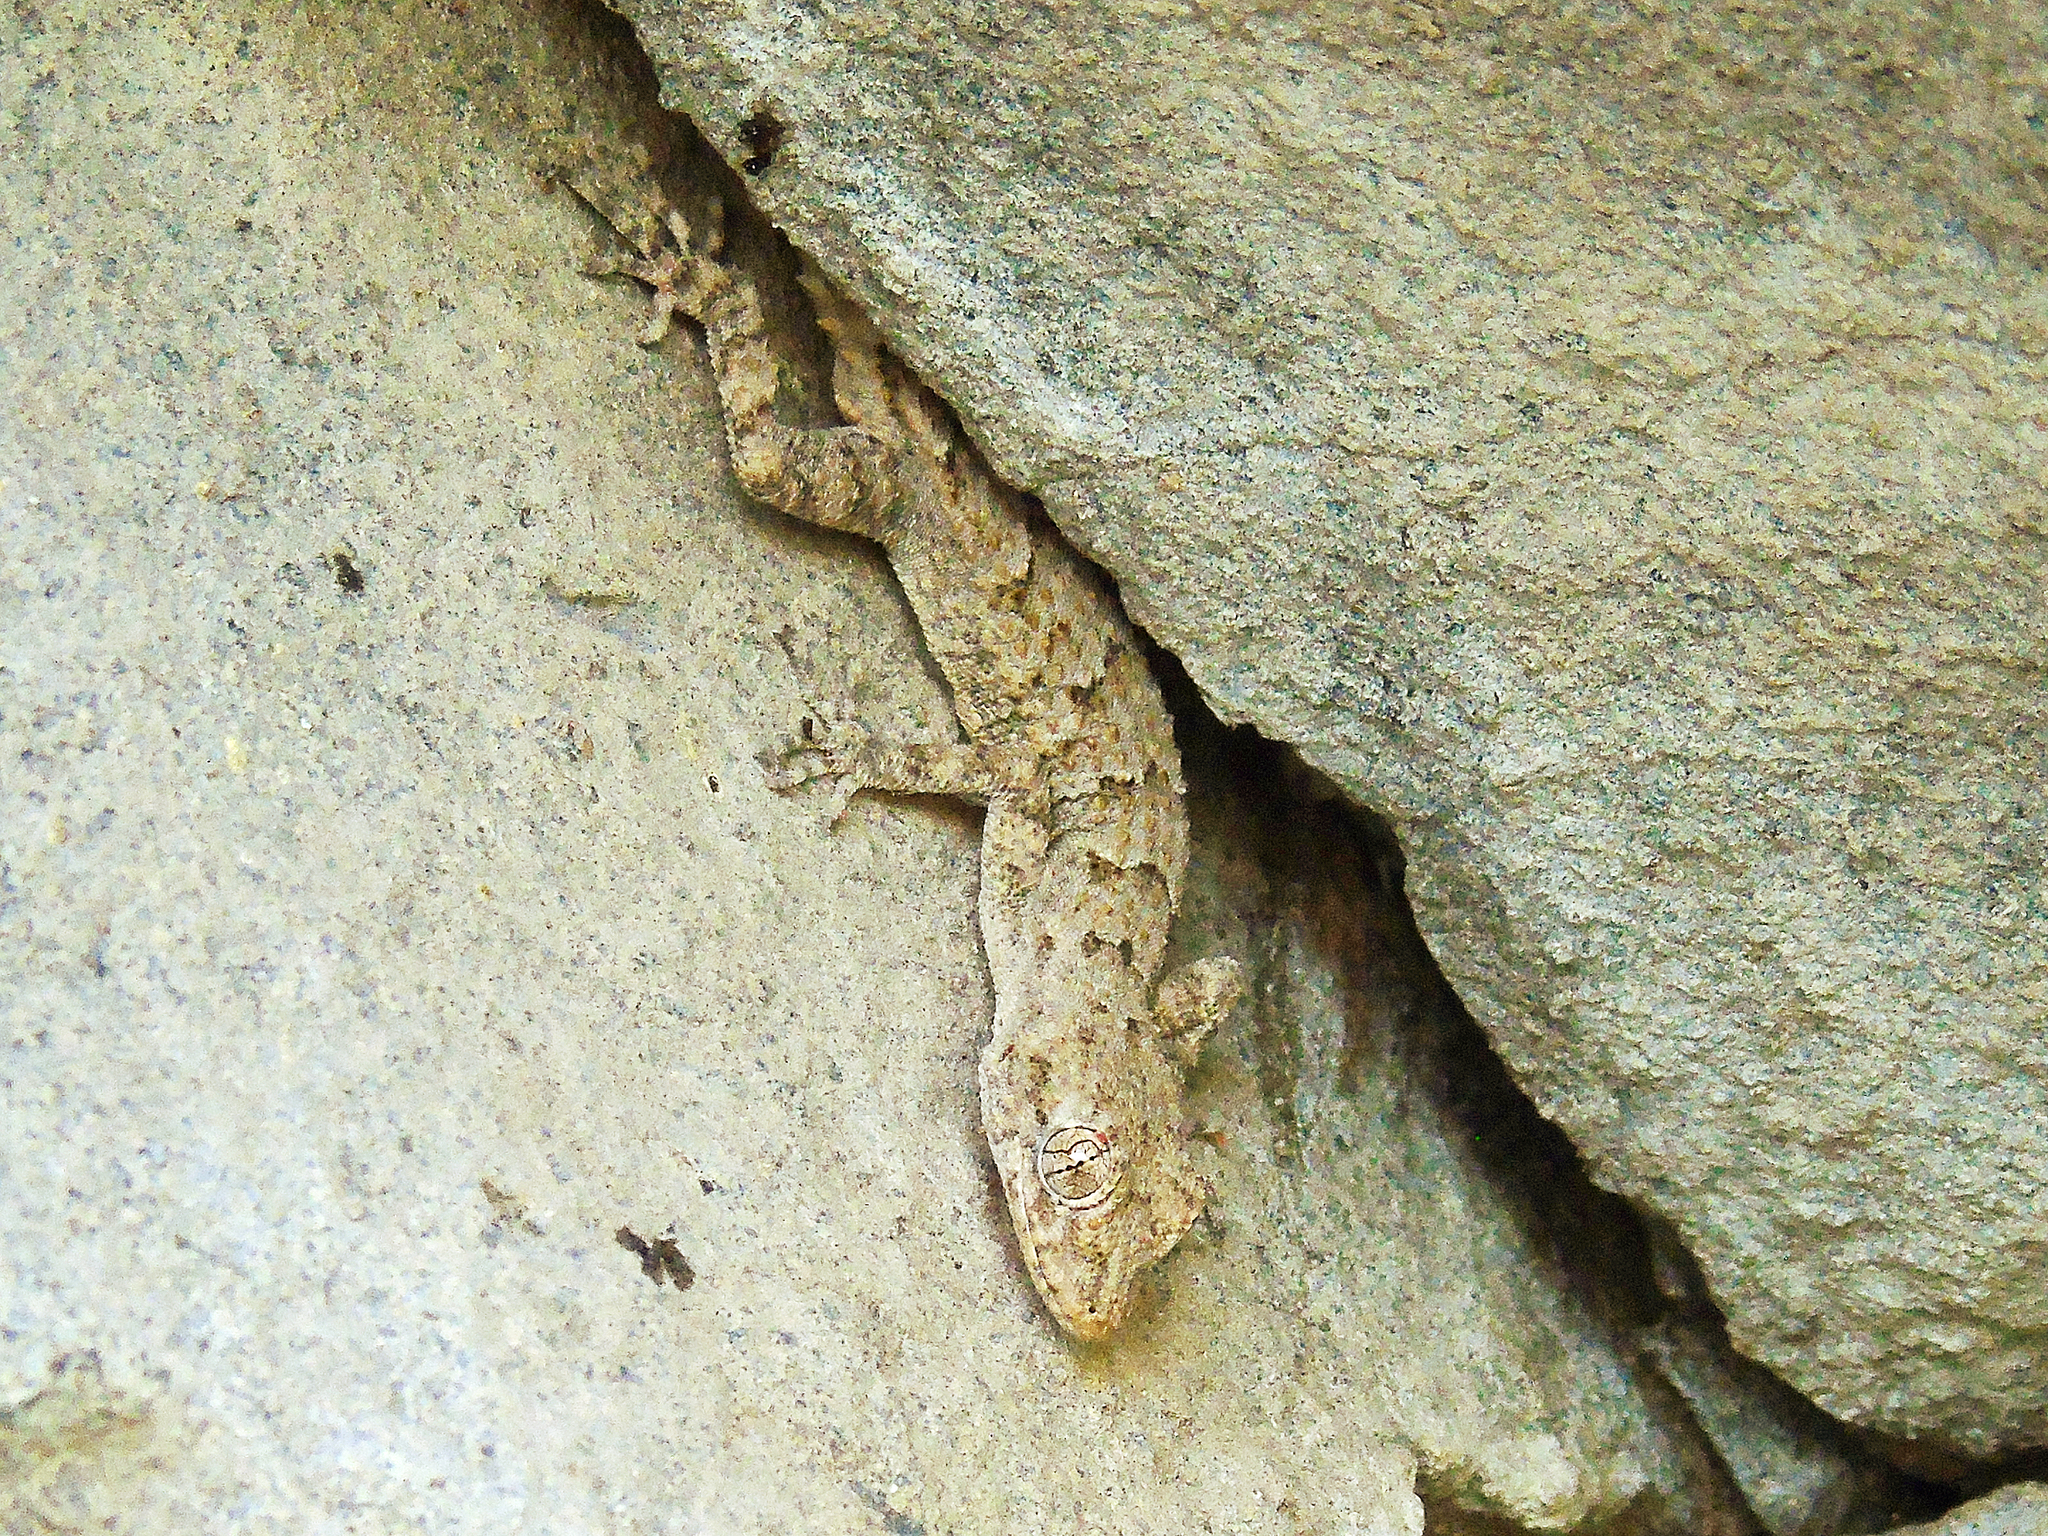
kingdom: Animalia
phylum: Chordata
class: Squamata
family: Gekkonidae
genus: Mediodactylus
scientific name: Mediodactylus heterocercus
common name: Asia minor thin-toed gecko
